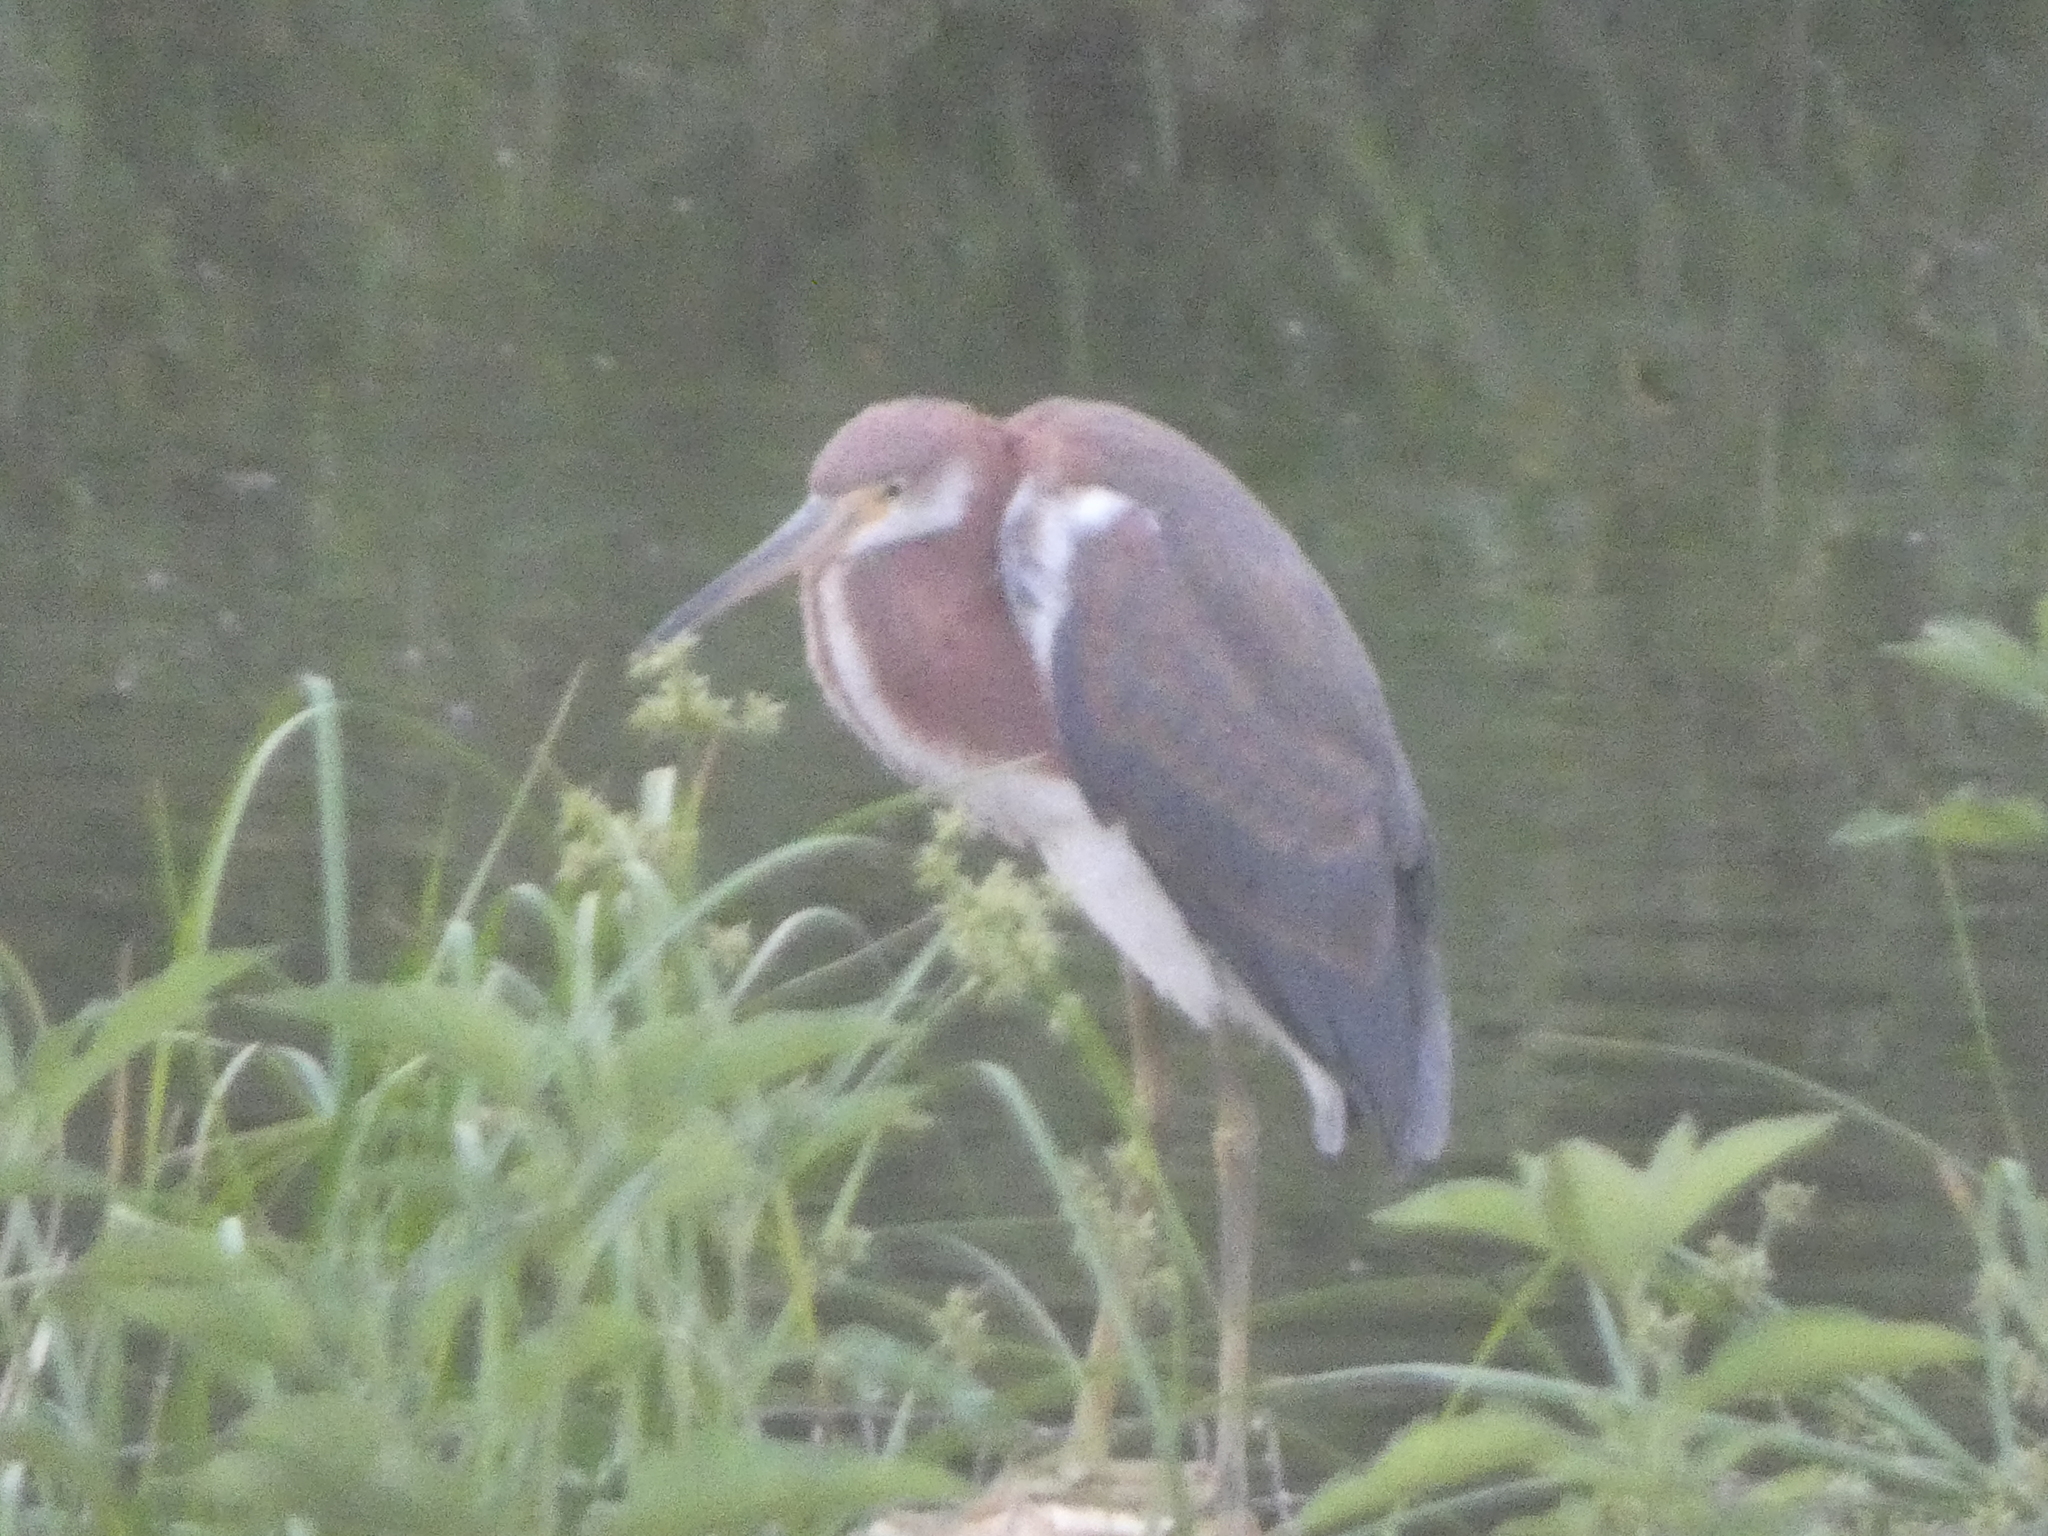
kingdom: Animalia
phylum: Chordata
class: Aves
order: Pelecaniformes
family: Ardeidae
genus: Egretta
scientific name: Egretta tricolor
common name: Tricolored heron
